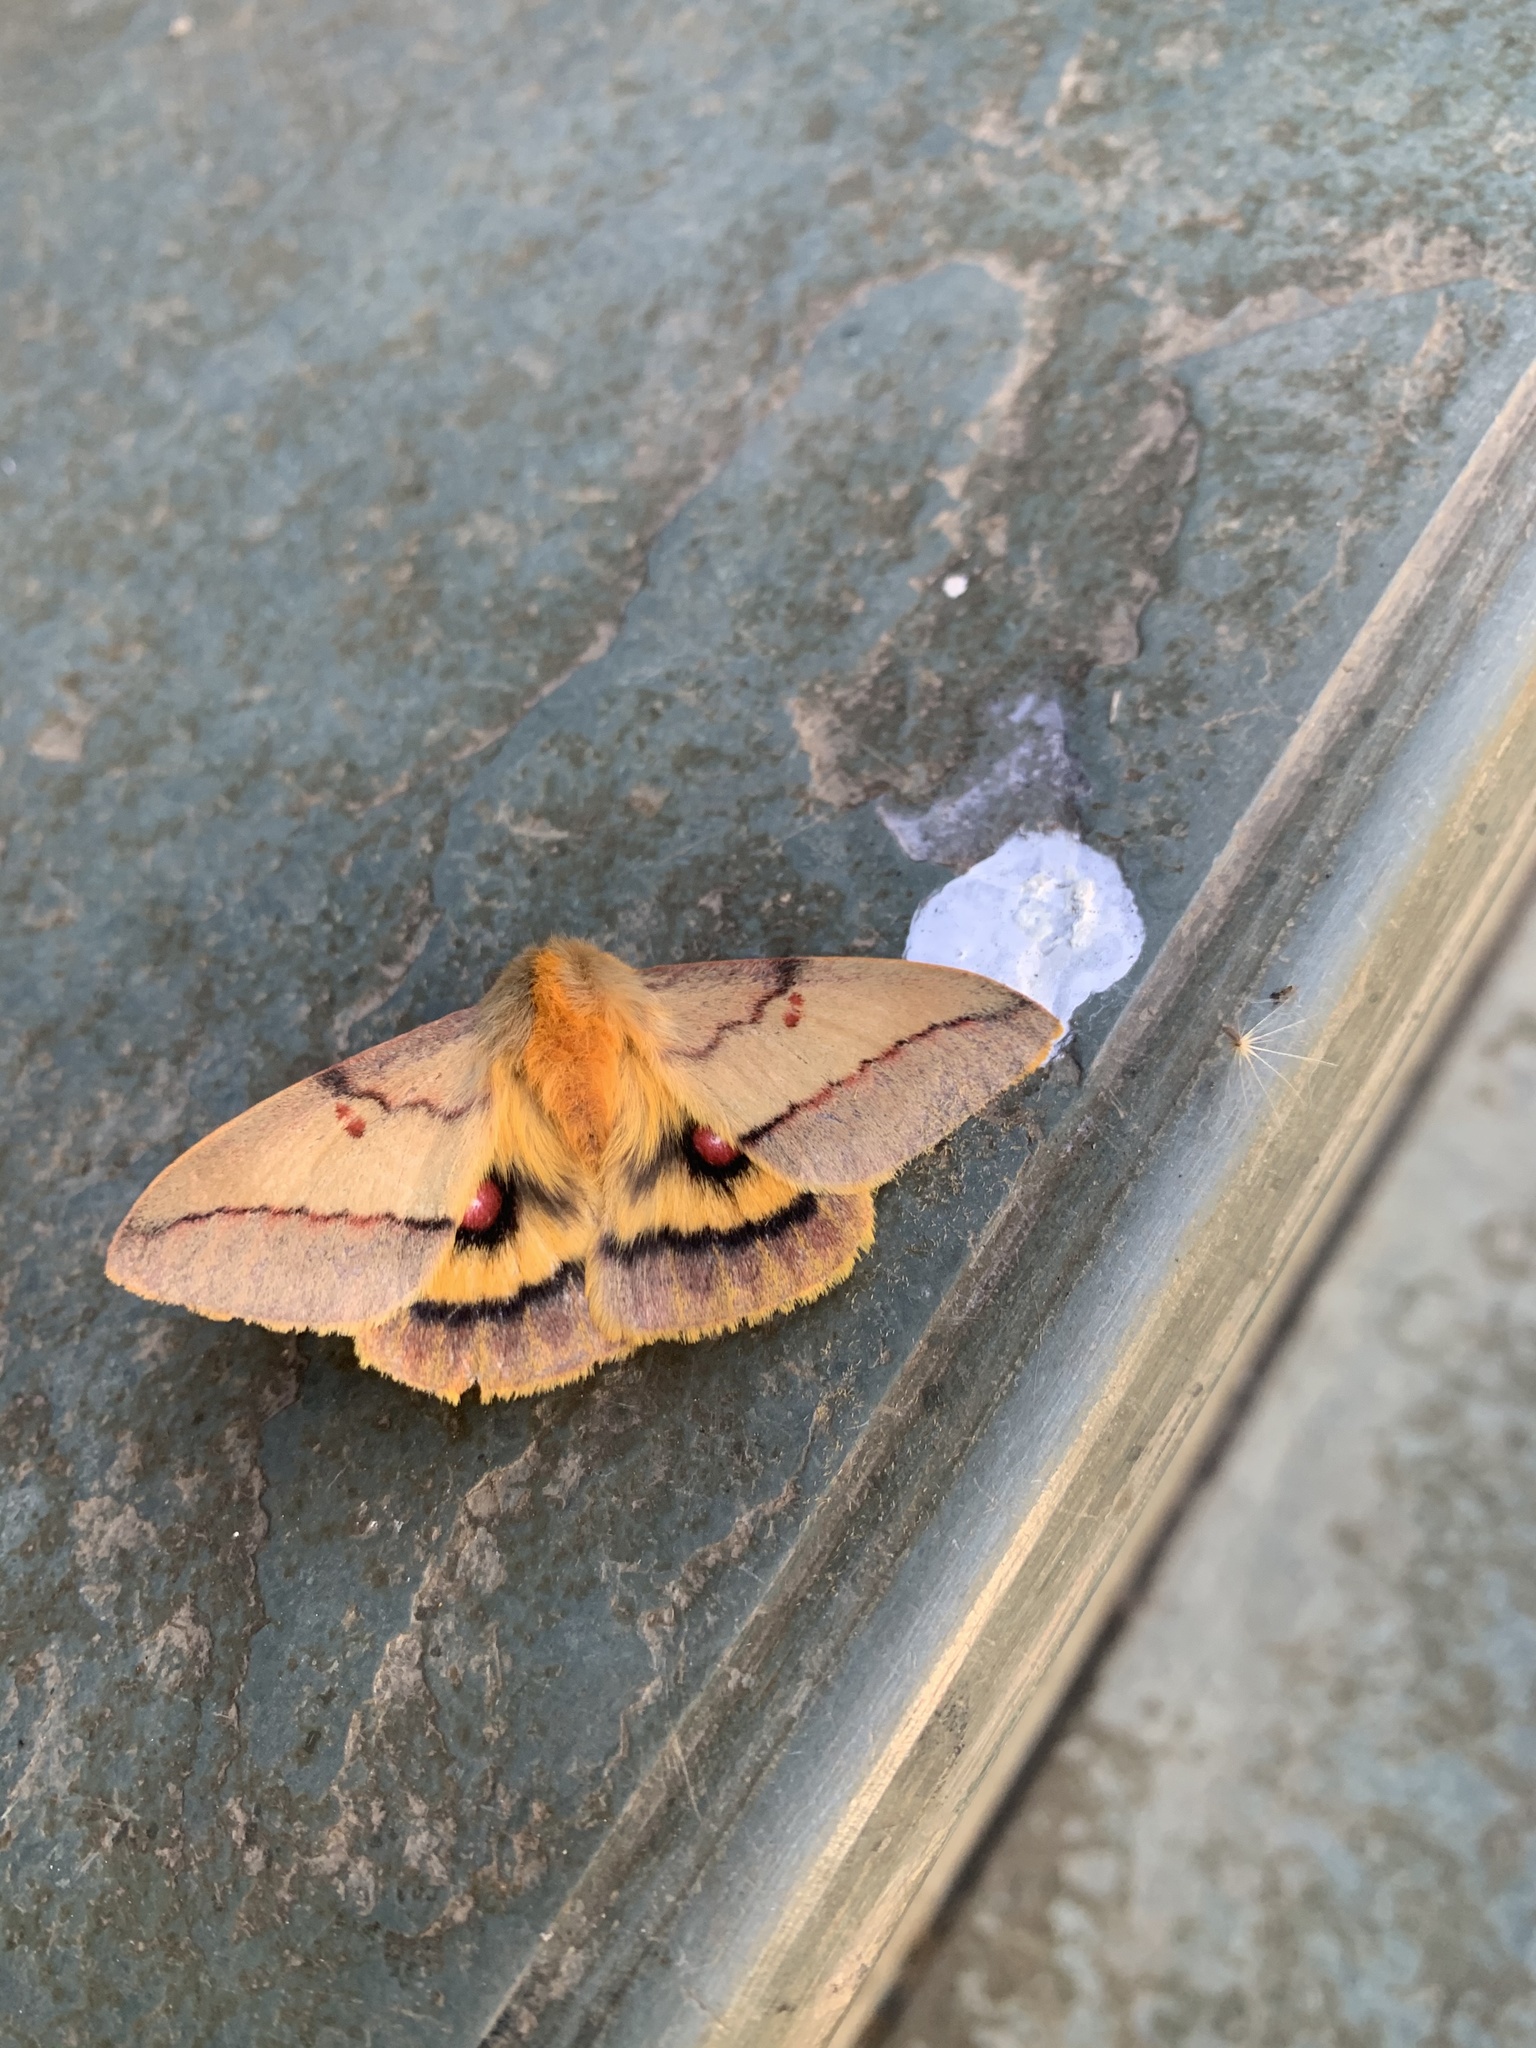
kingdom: Animalia
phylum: Arthropoda
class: Insecta
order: Lepidoptera
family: Saturniidae
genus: Adetomeris
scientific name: Adetomeris erythrops
